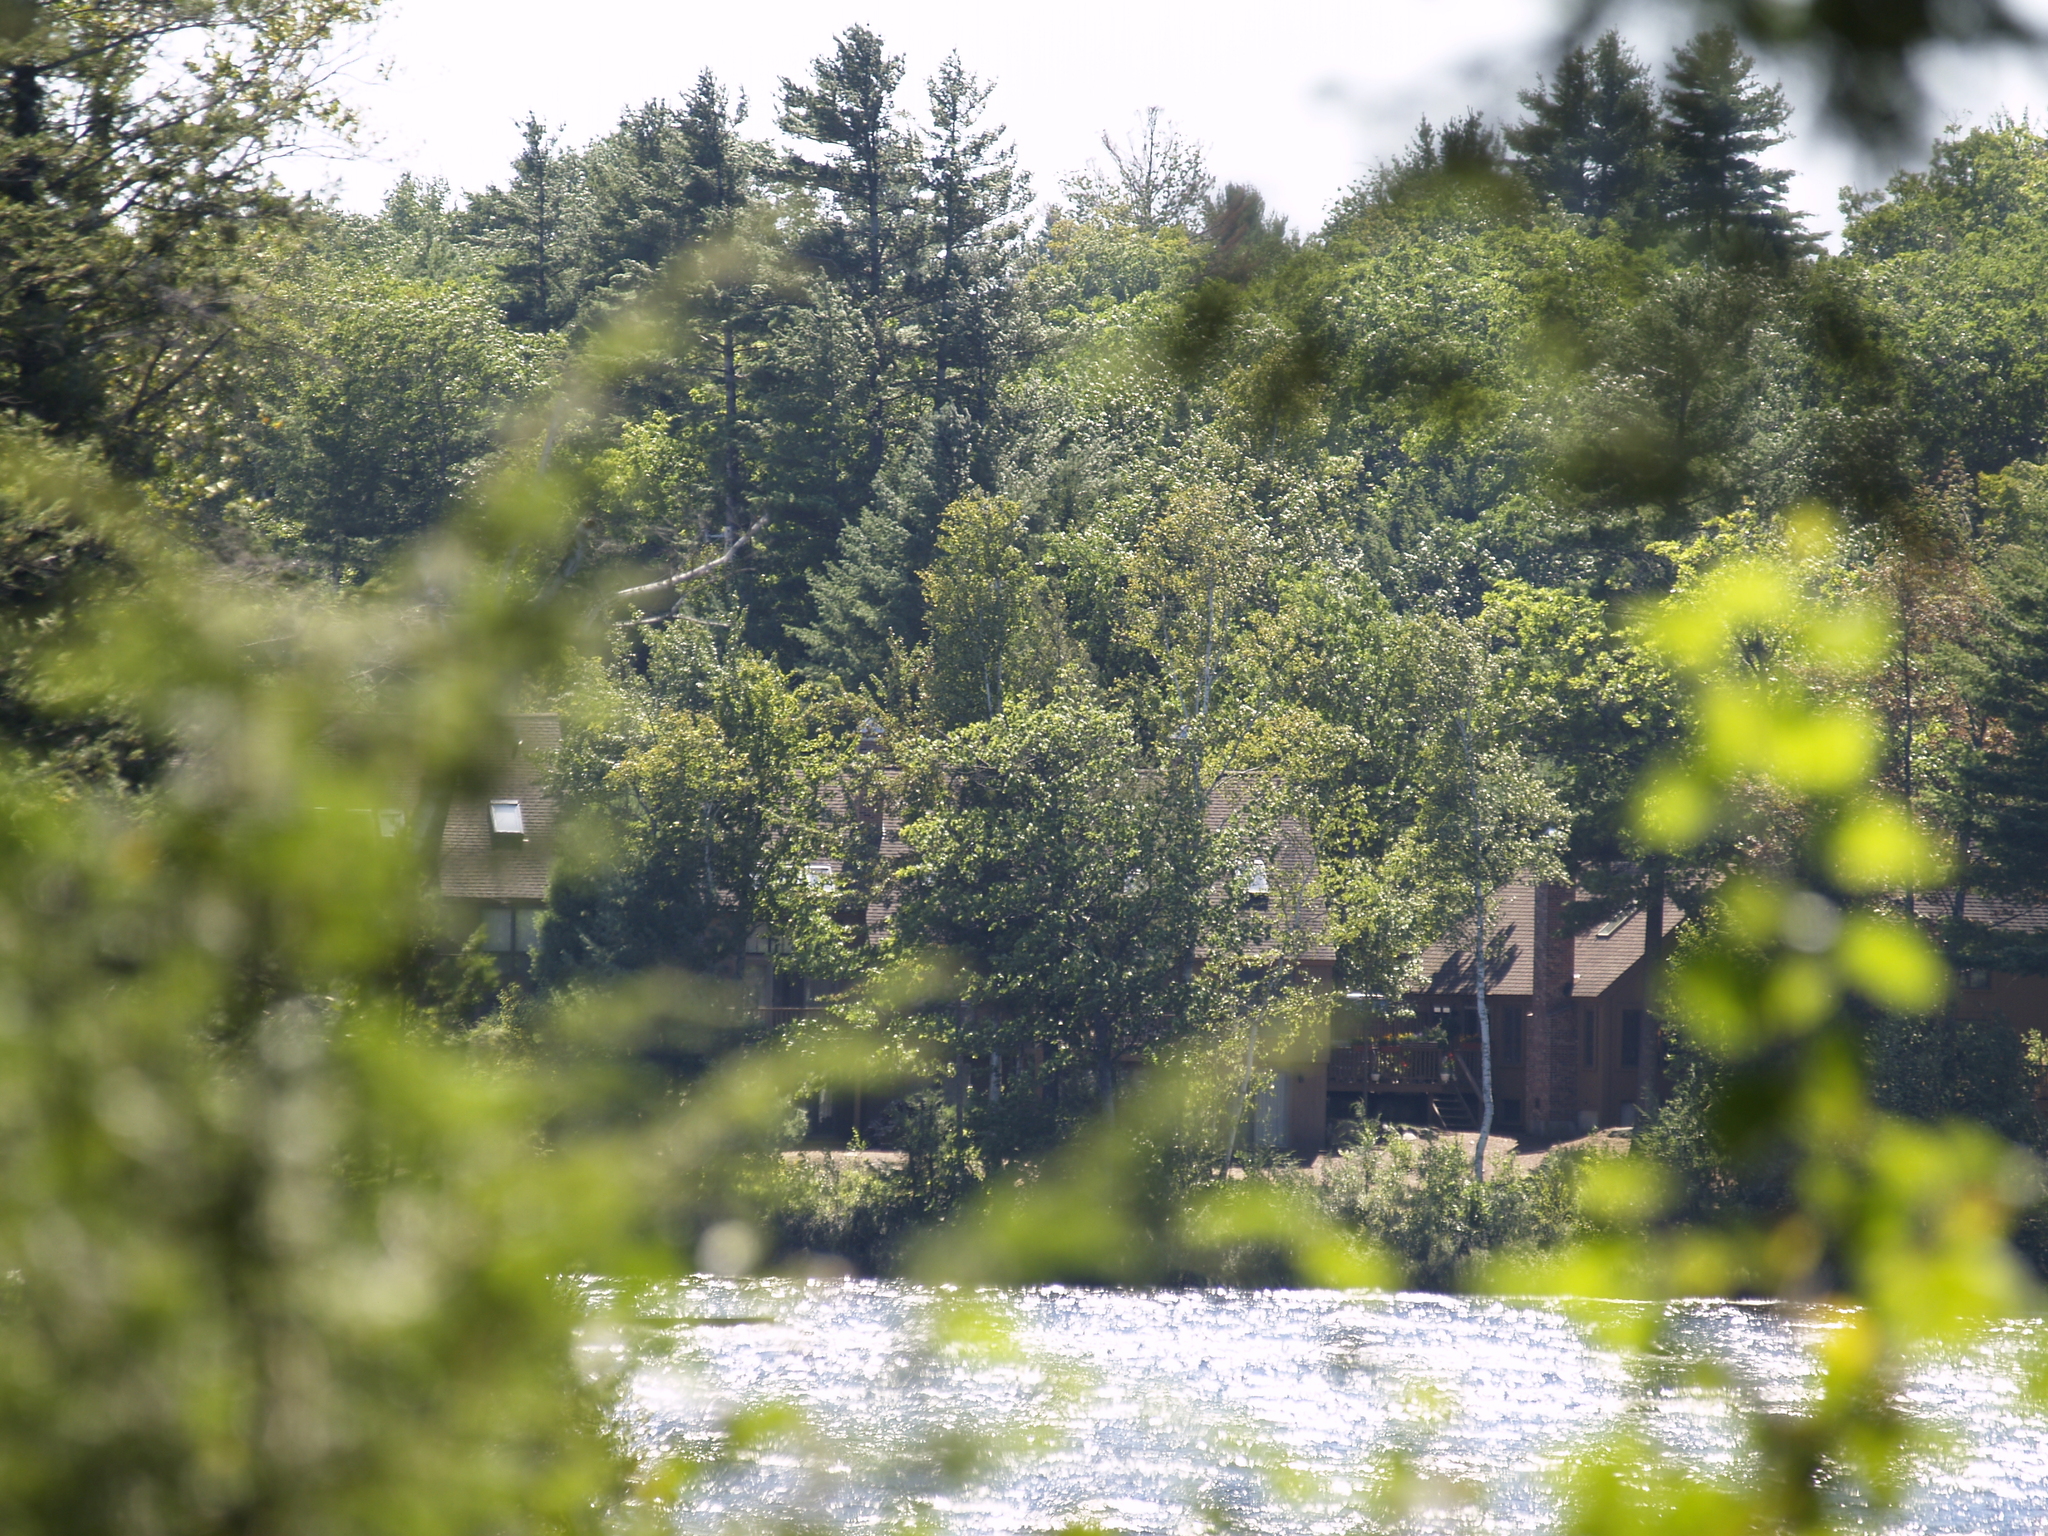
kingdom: Plantae
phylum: Tracheophyta
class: Pinopsida
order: Pinales
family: Pinaceae
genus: Pinus
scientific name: Pinus strobus
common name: Weymouth pine
